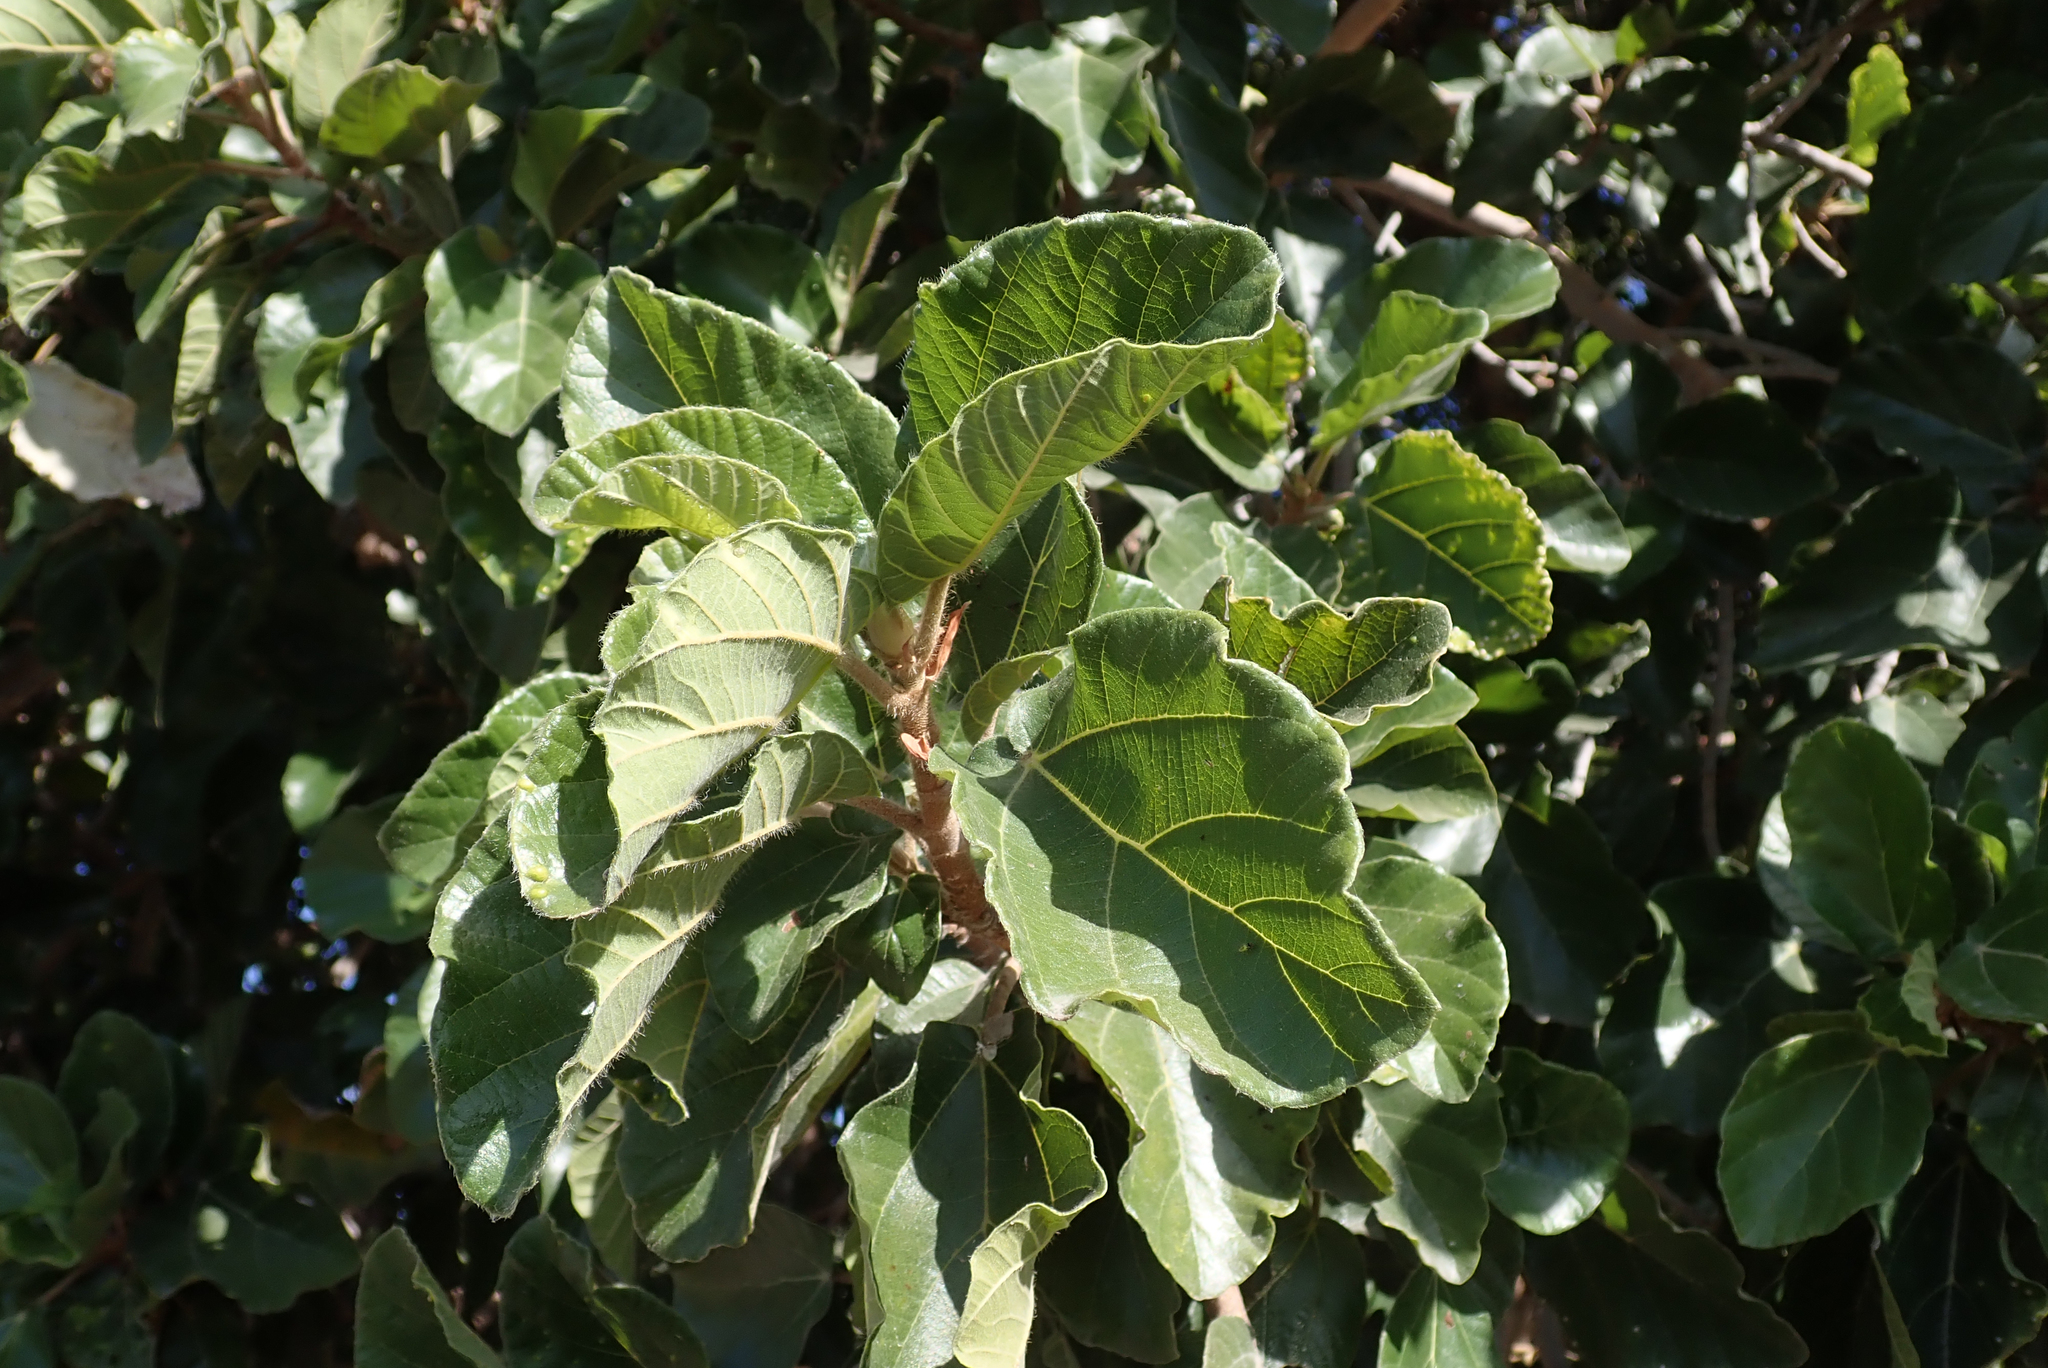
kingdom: Plantae
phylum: Tracheophyta
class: Magnoliopsida
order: Rosales
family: Moraceae
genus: Ficus
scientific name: Ficus sycomorus
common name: Sycomore
